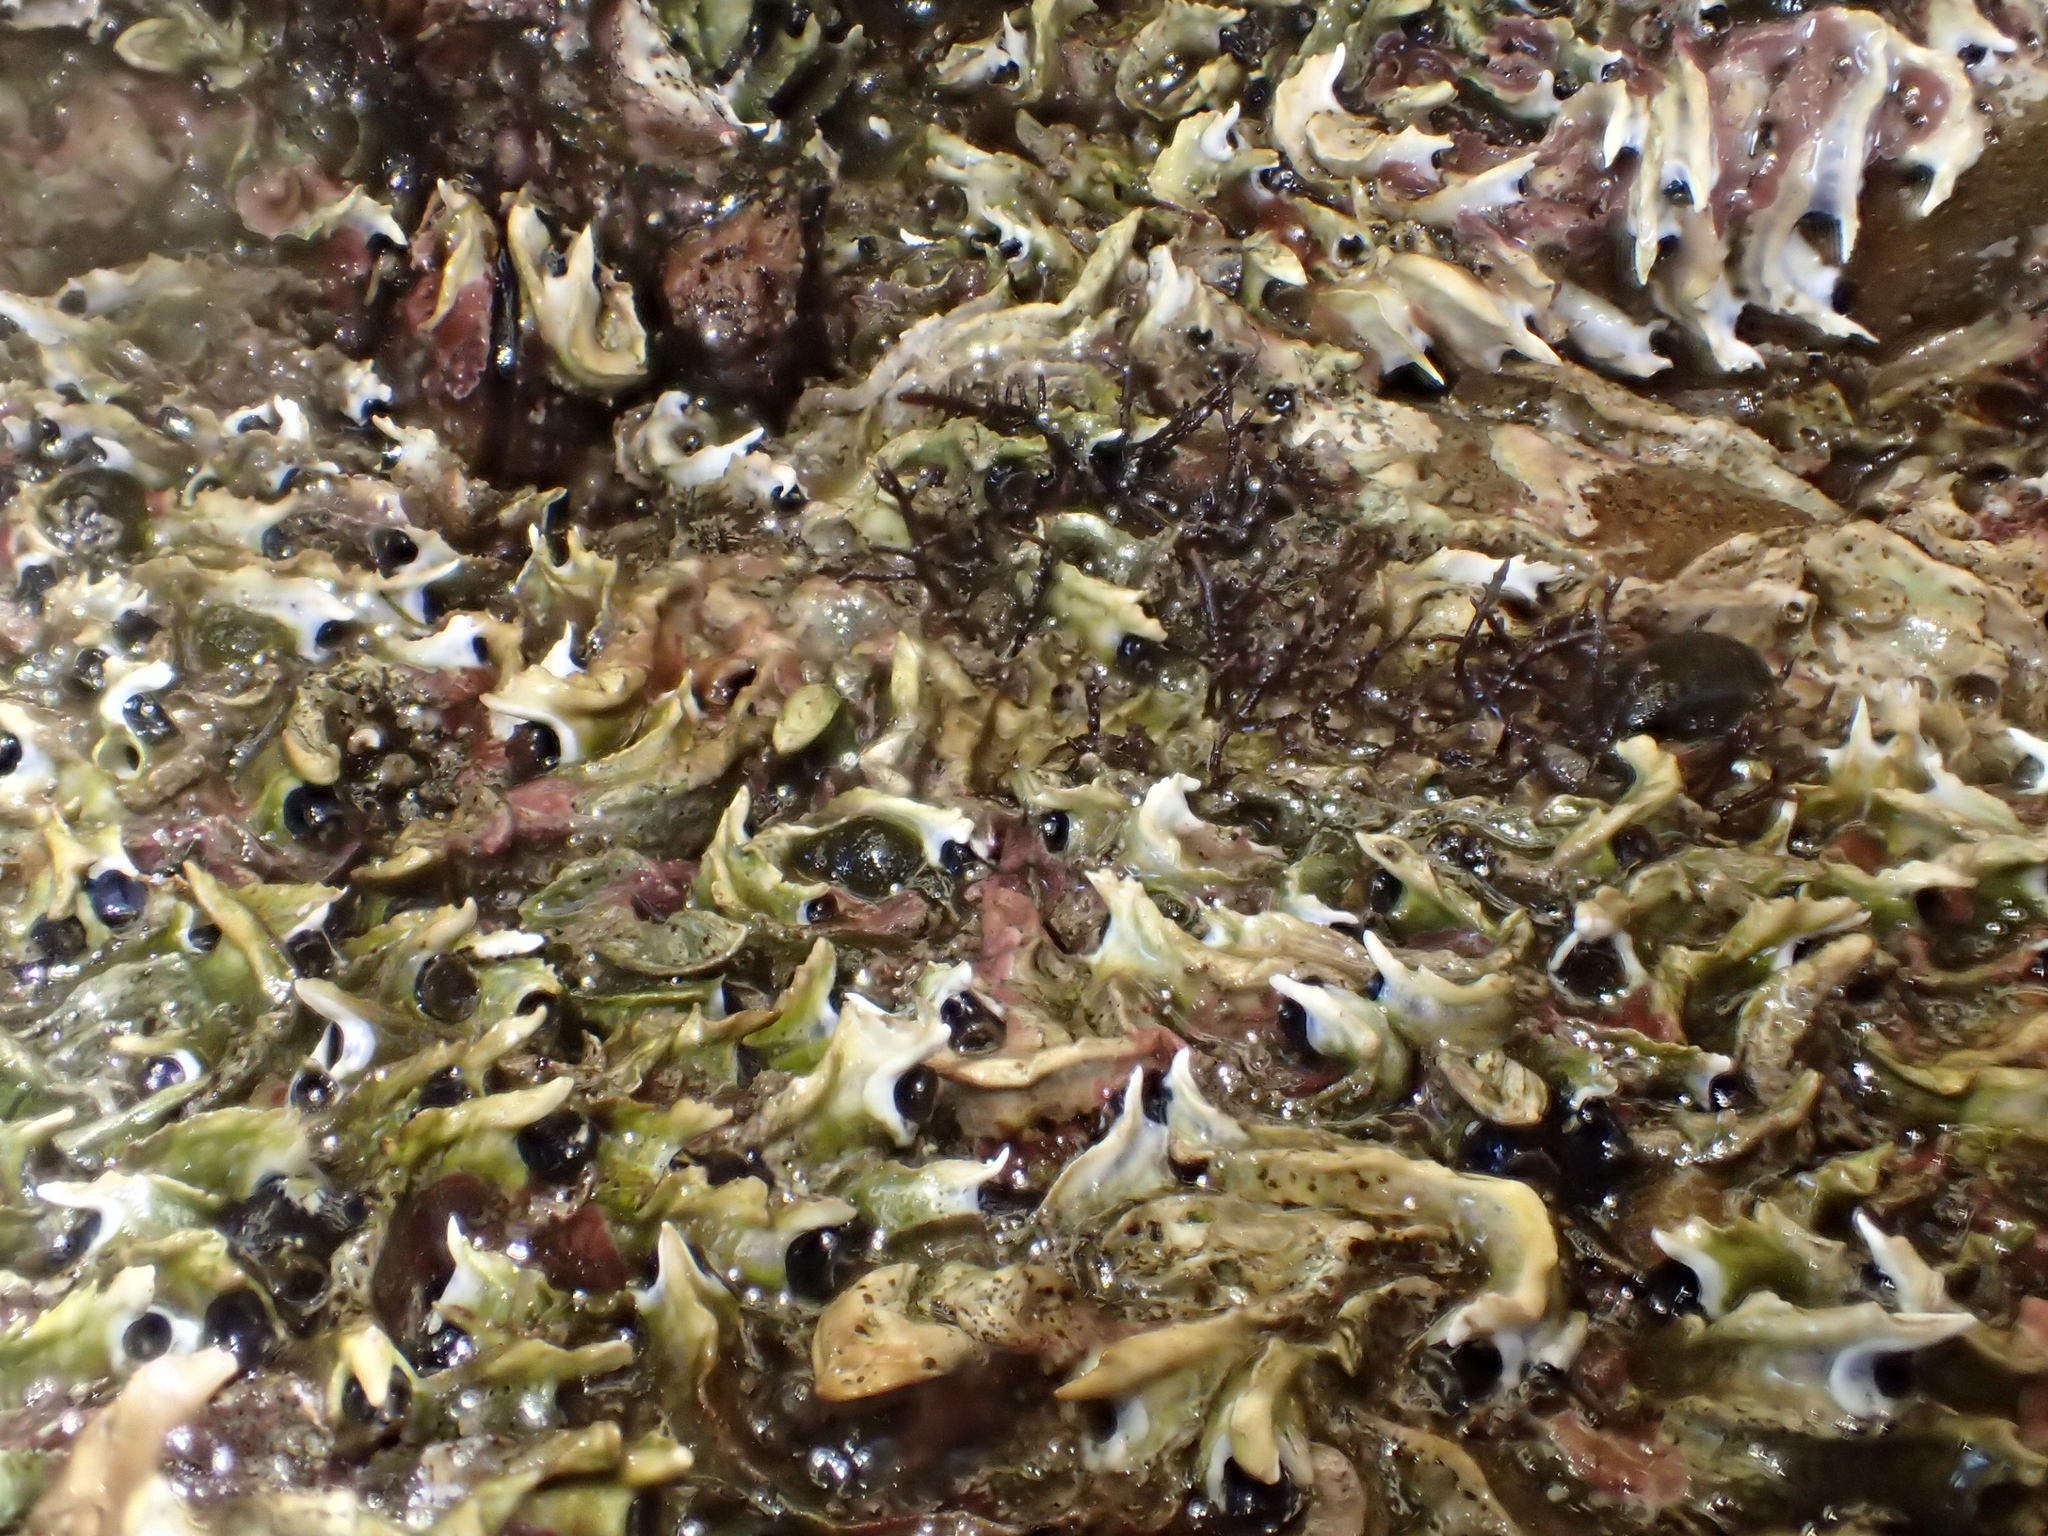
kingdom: Animalia
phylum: Annelida
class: Polychaeta
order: Sabellida
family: Serpulidae
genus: Spirobranchus
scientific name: Spirobranchus cariniferus
